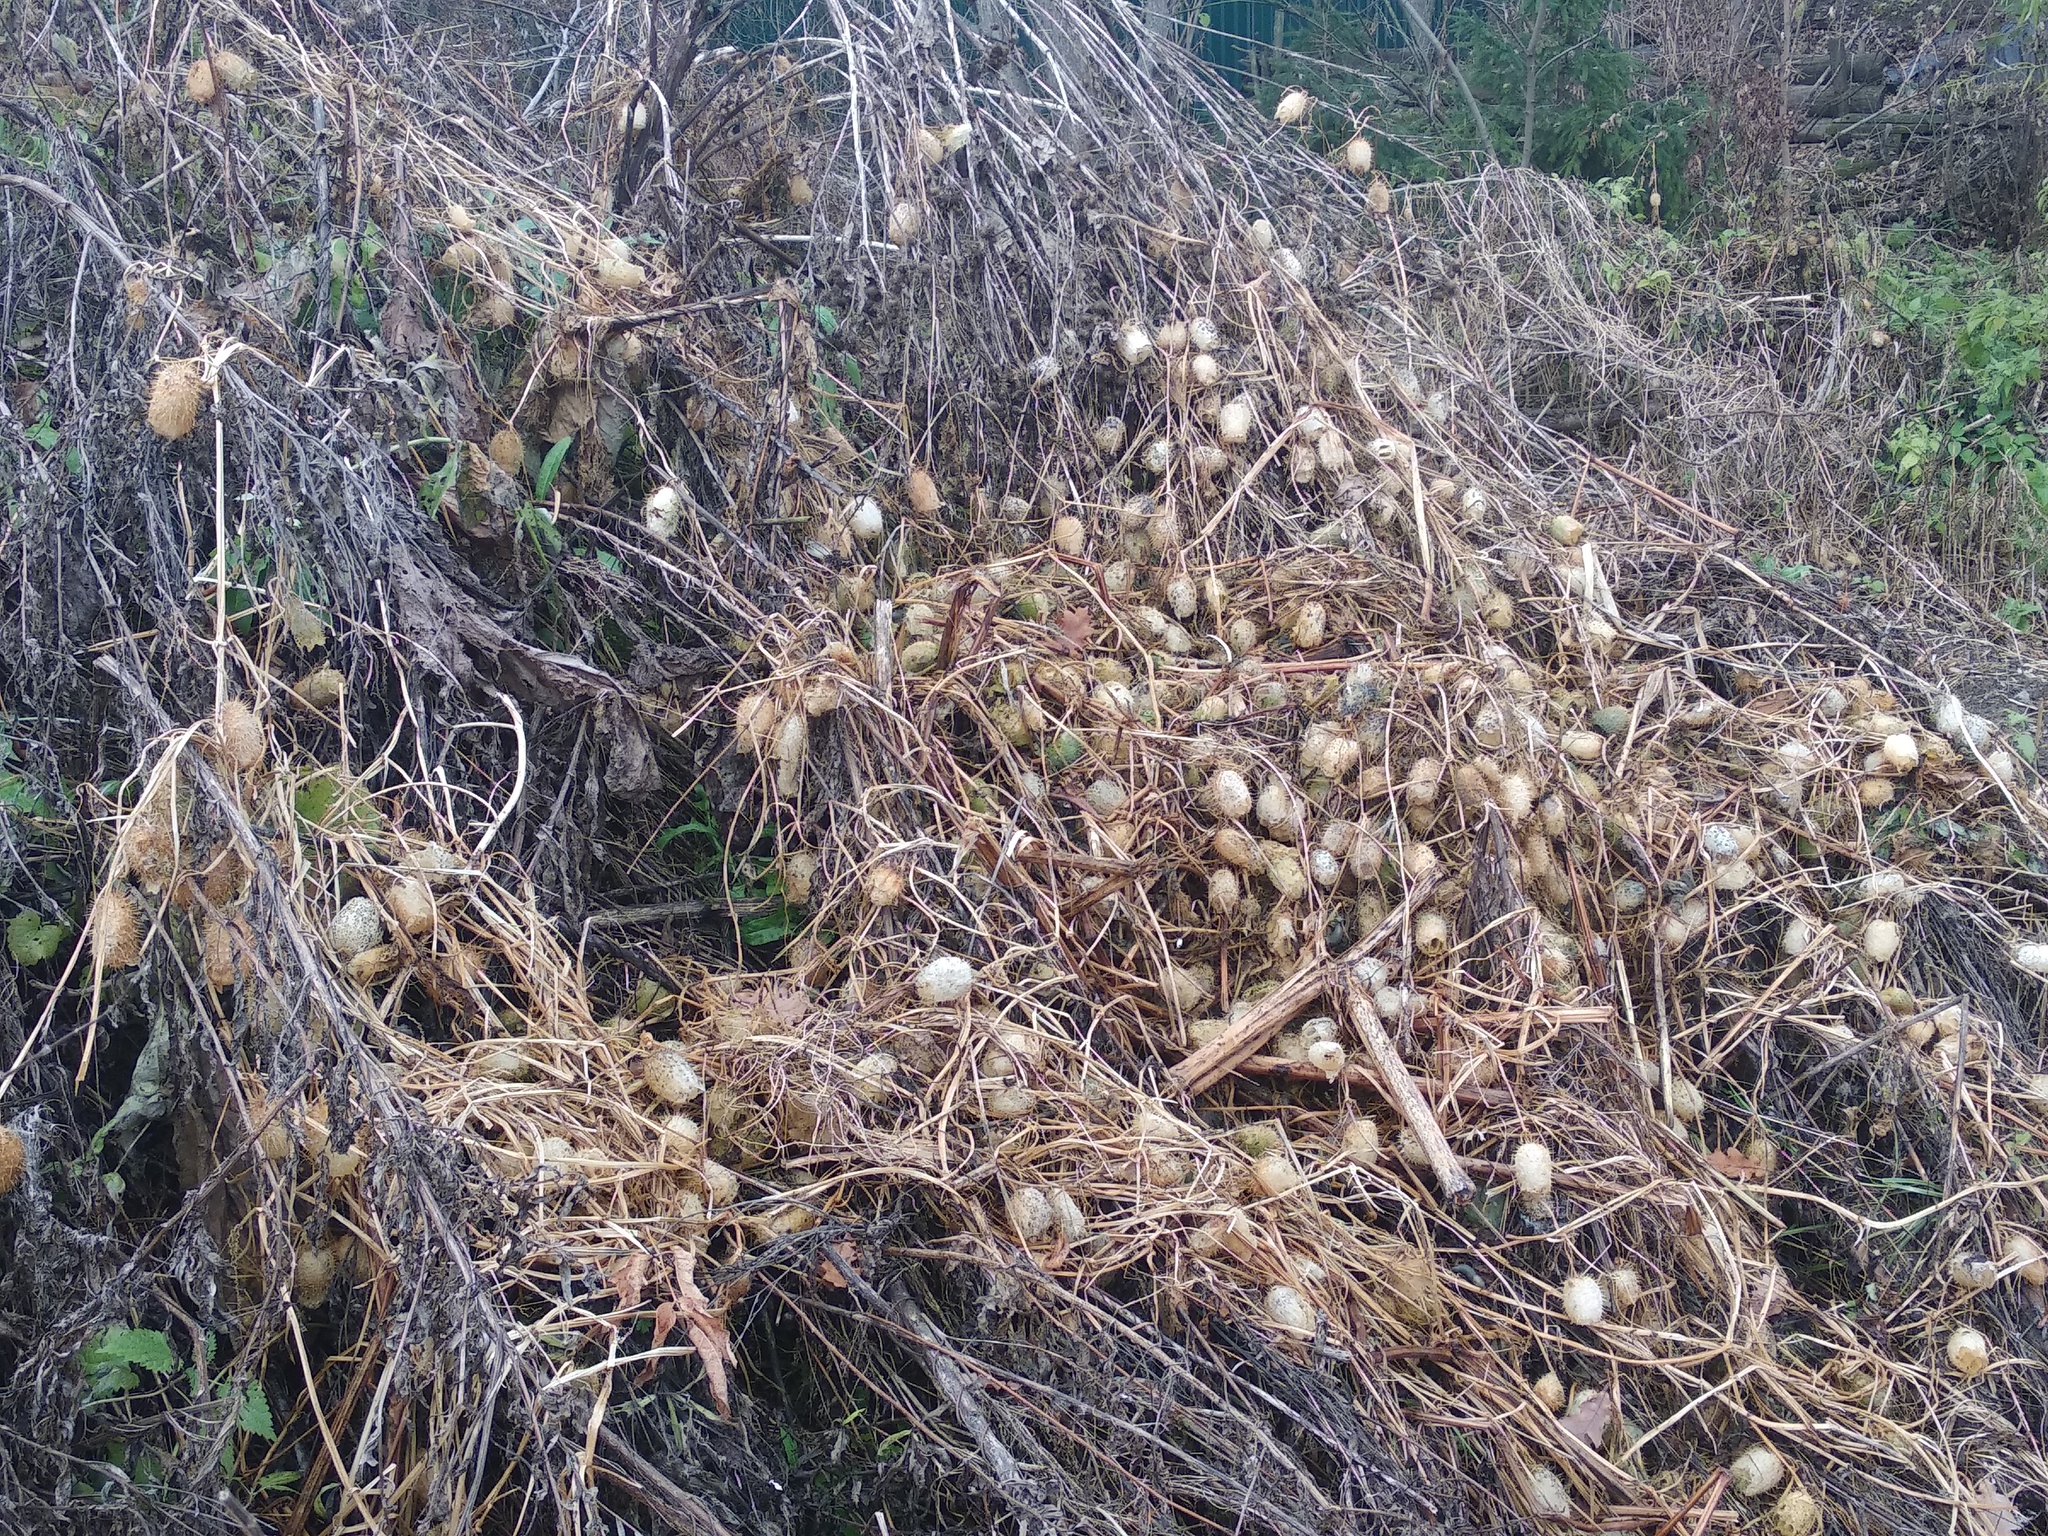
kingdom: Plantae
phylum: Tracheophyta
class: Magnoliopsida
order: Cucurbitales
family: Cucurbitaceae
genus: Echinocystis
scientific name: Echinocystis lobata
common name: Wild cucumber
